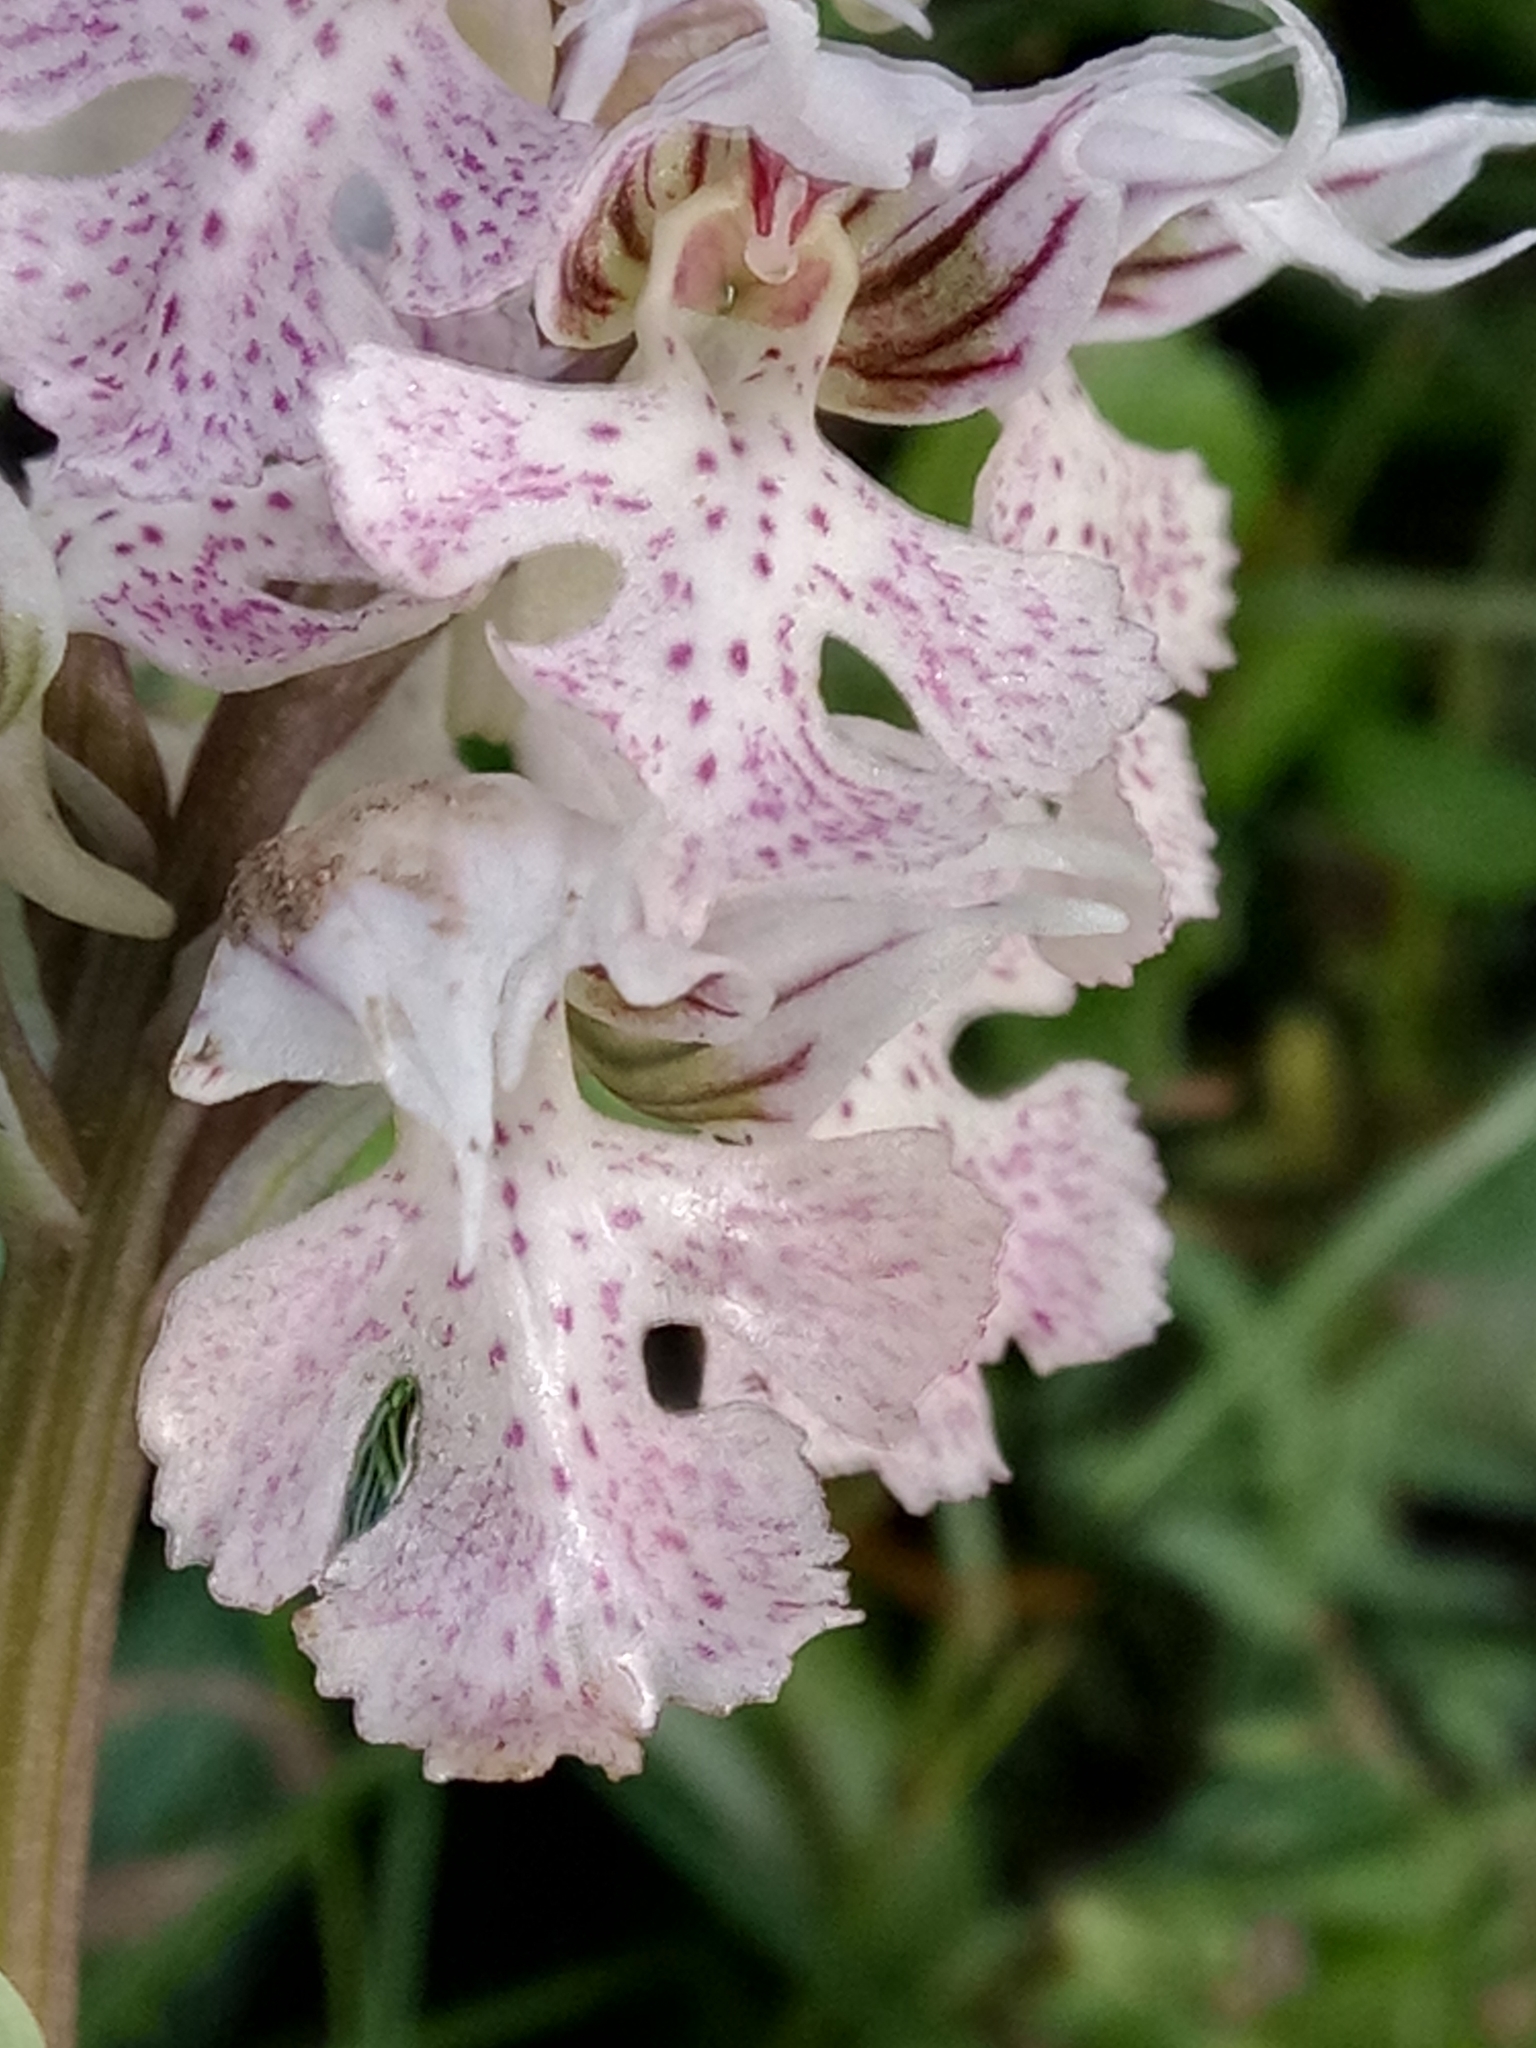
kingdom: Plantae
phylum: Tracheophyta
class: Liliopsida
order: Asparagales
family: Orchidaceae
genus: Neotinea
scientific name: Neotinea lactea
